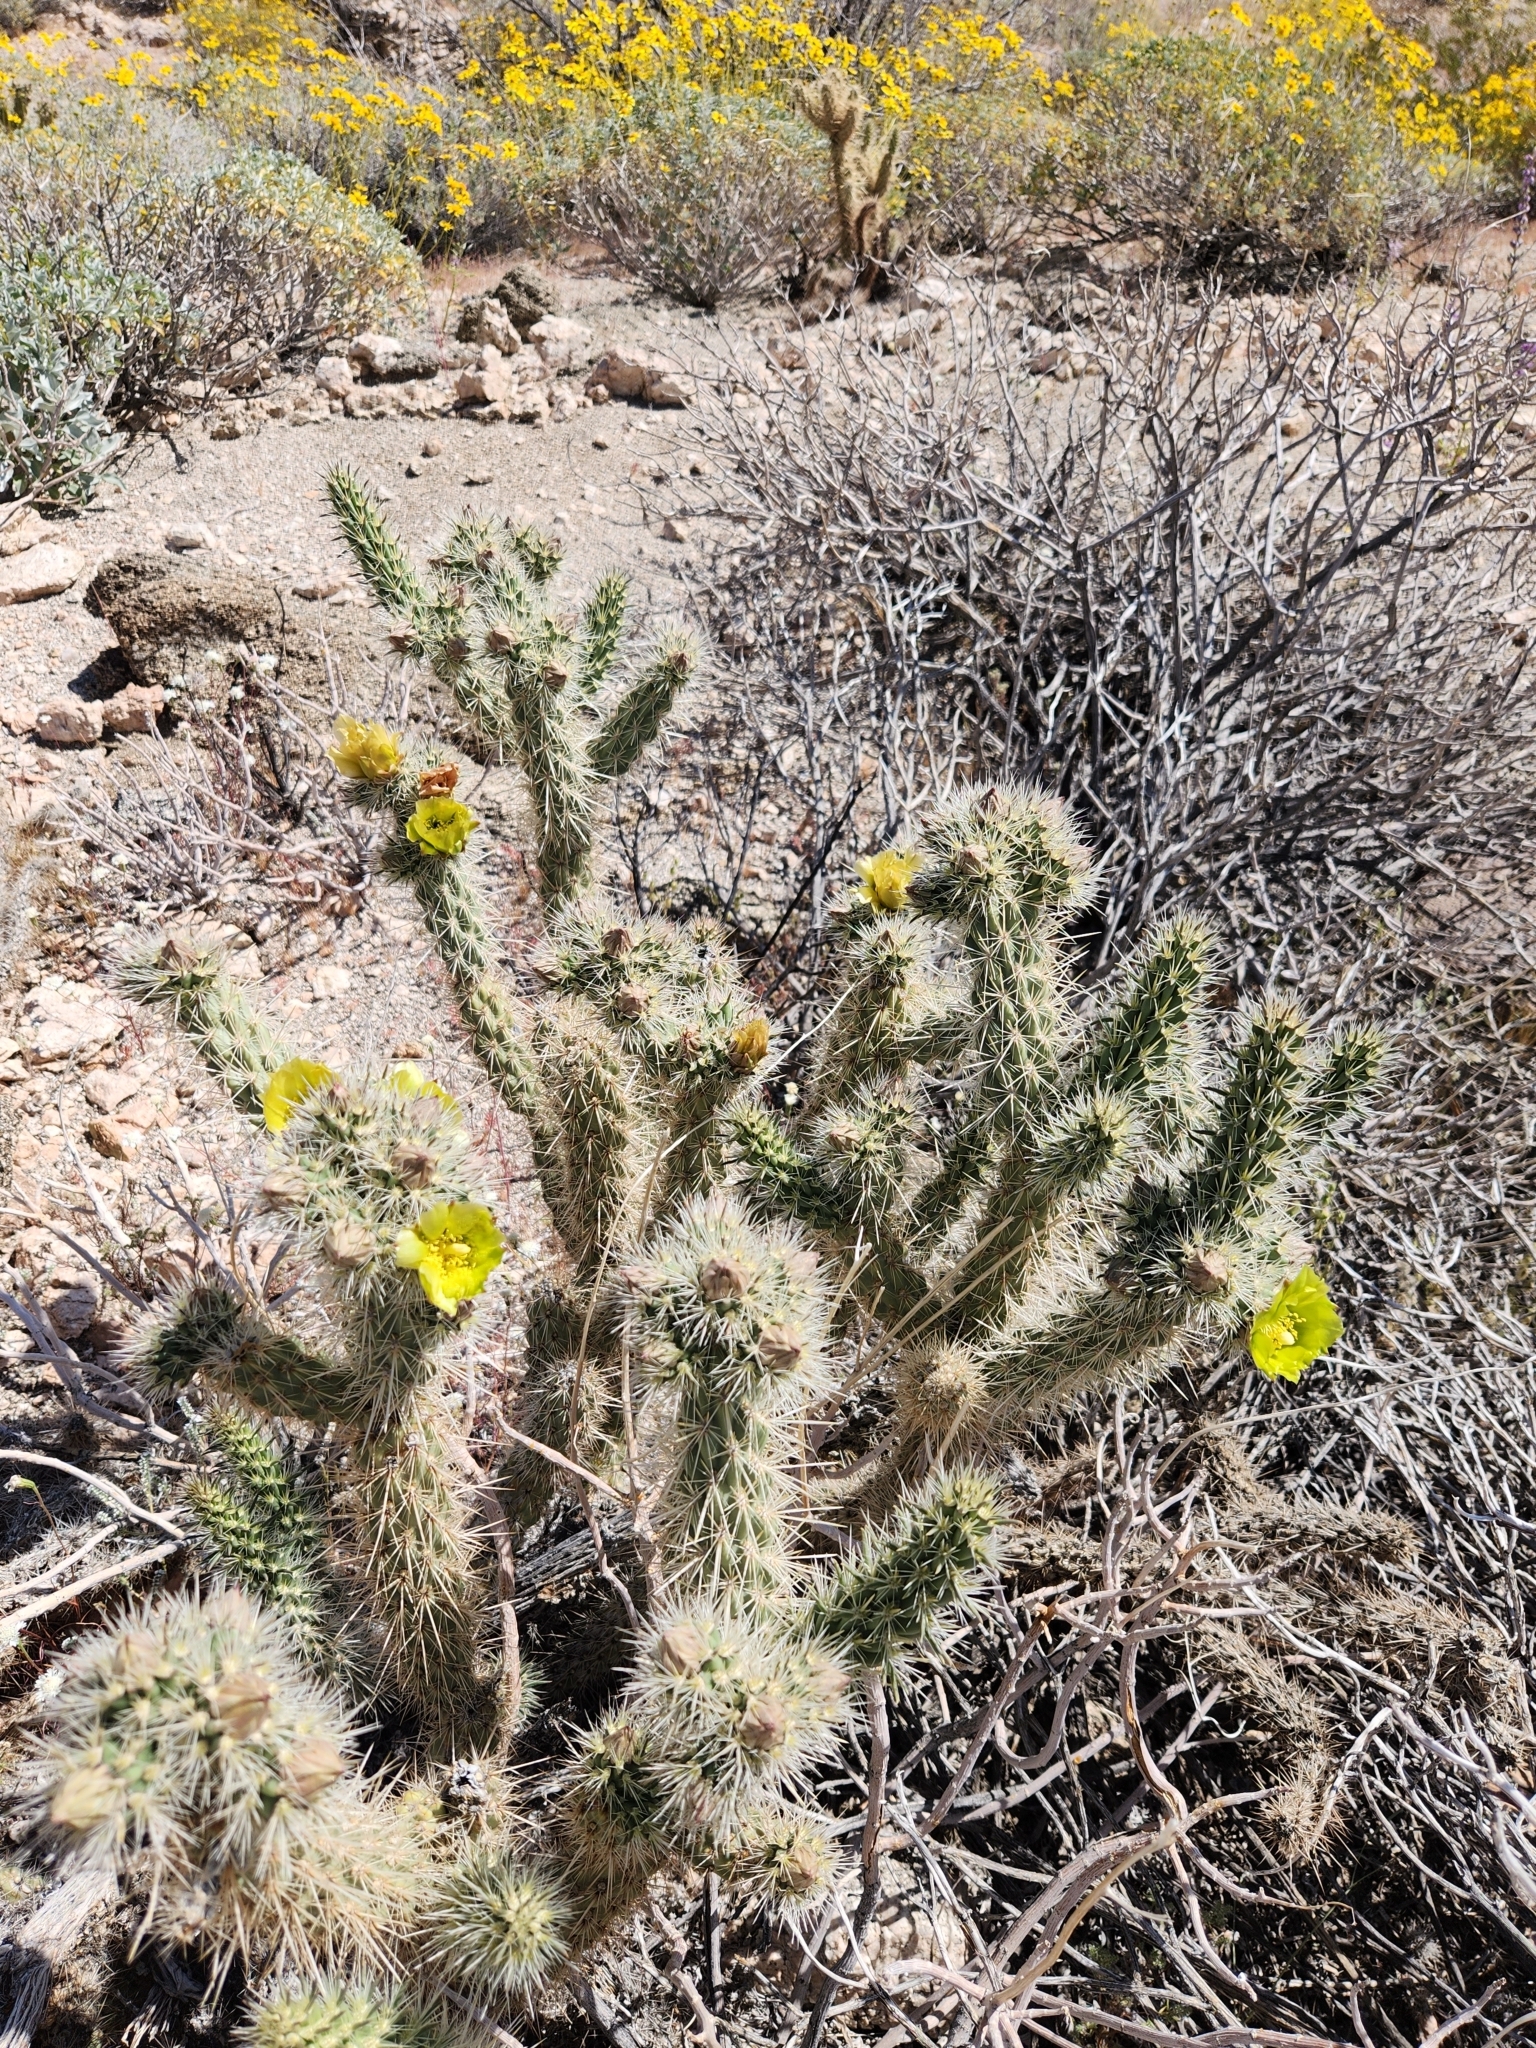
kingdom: Plantae
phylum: Tracheophyta
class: Magnoliopsida
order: Caryophyllales
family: Cactaceae
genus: Cylindropuntia
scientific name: Cylindropuntia ganderi
